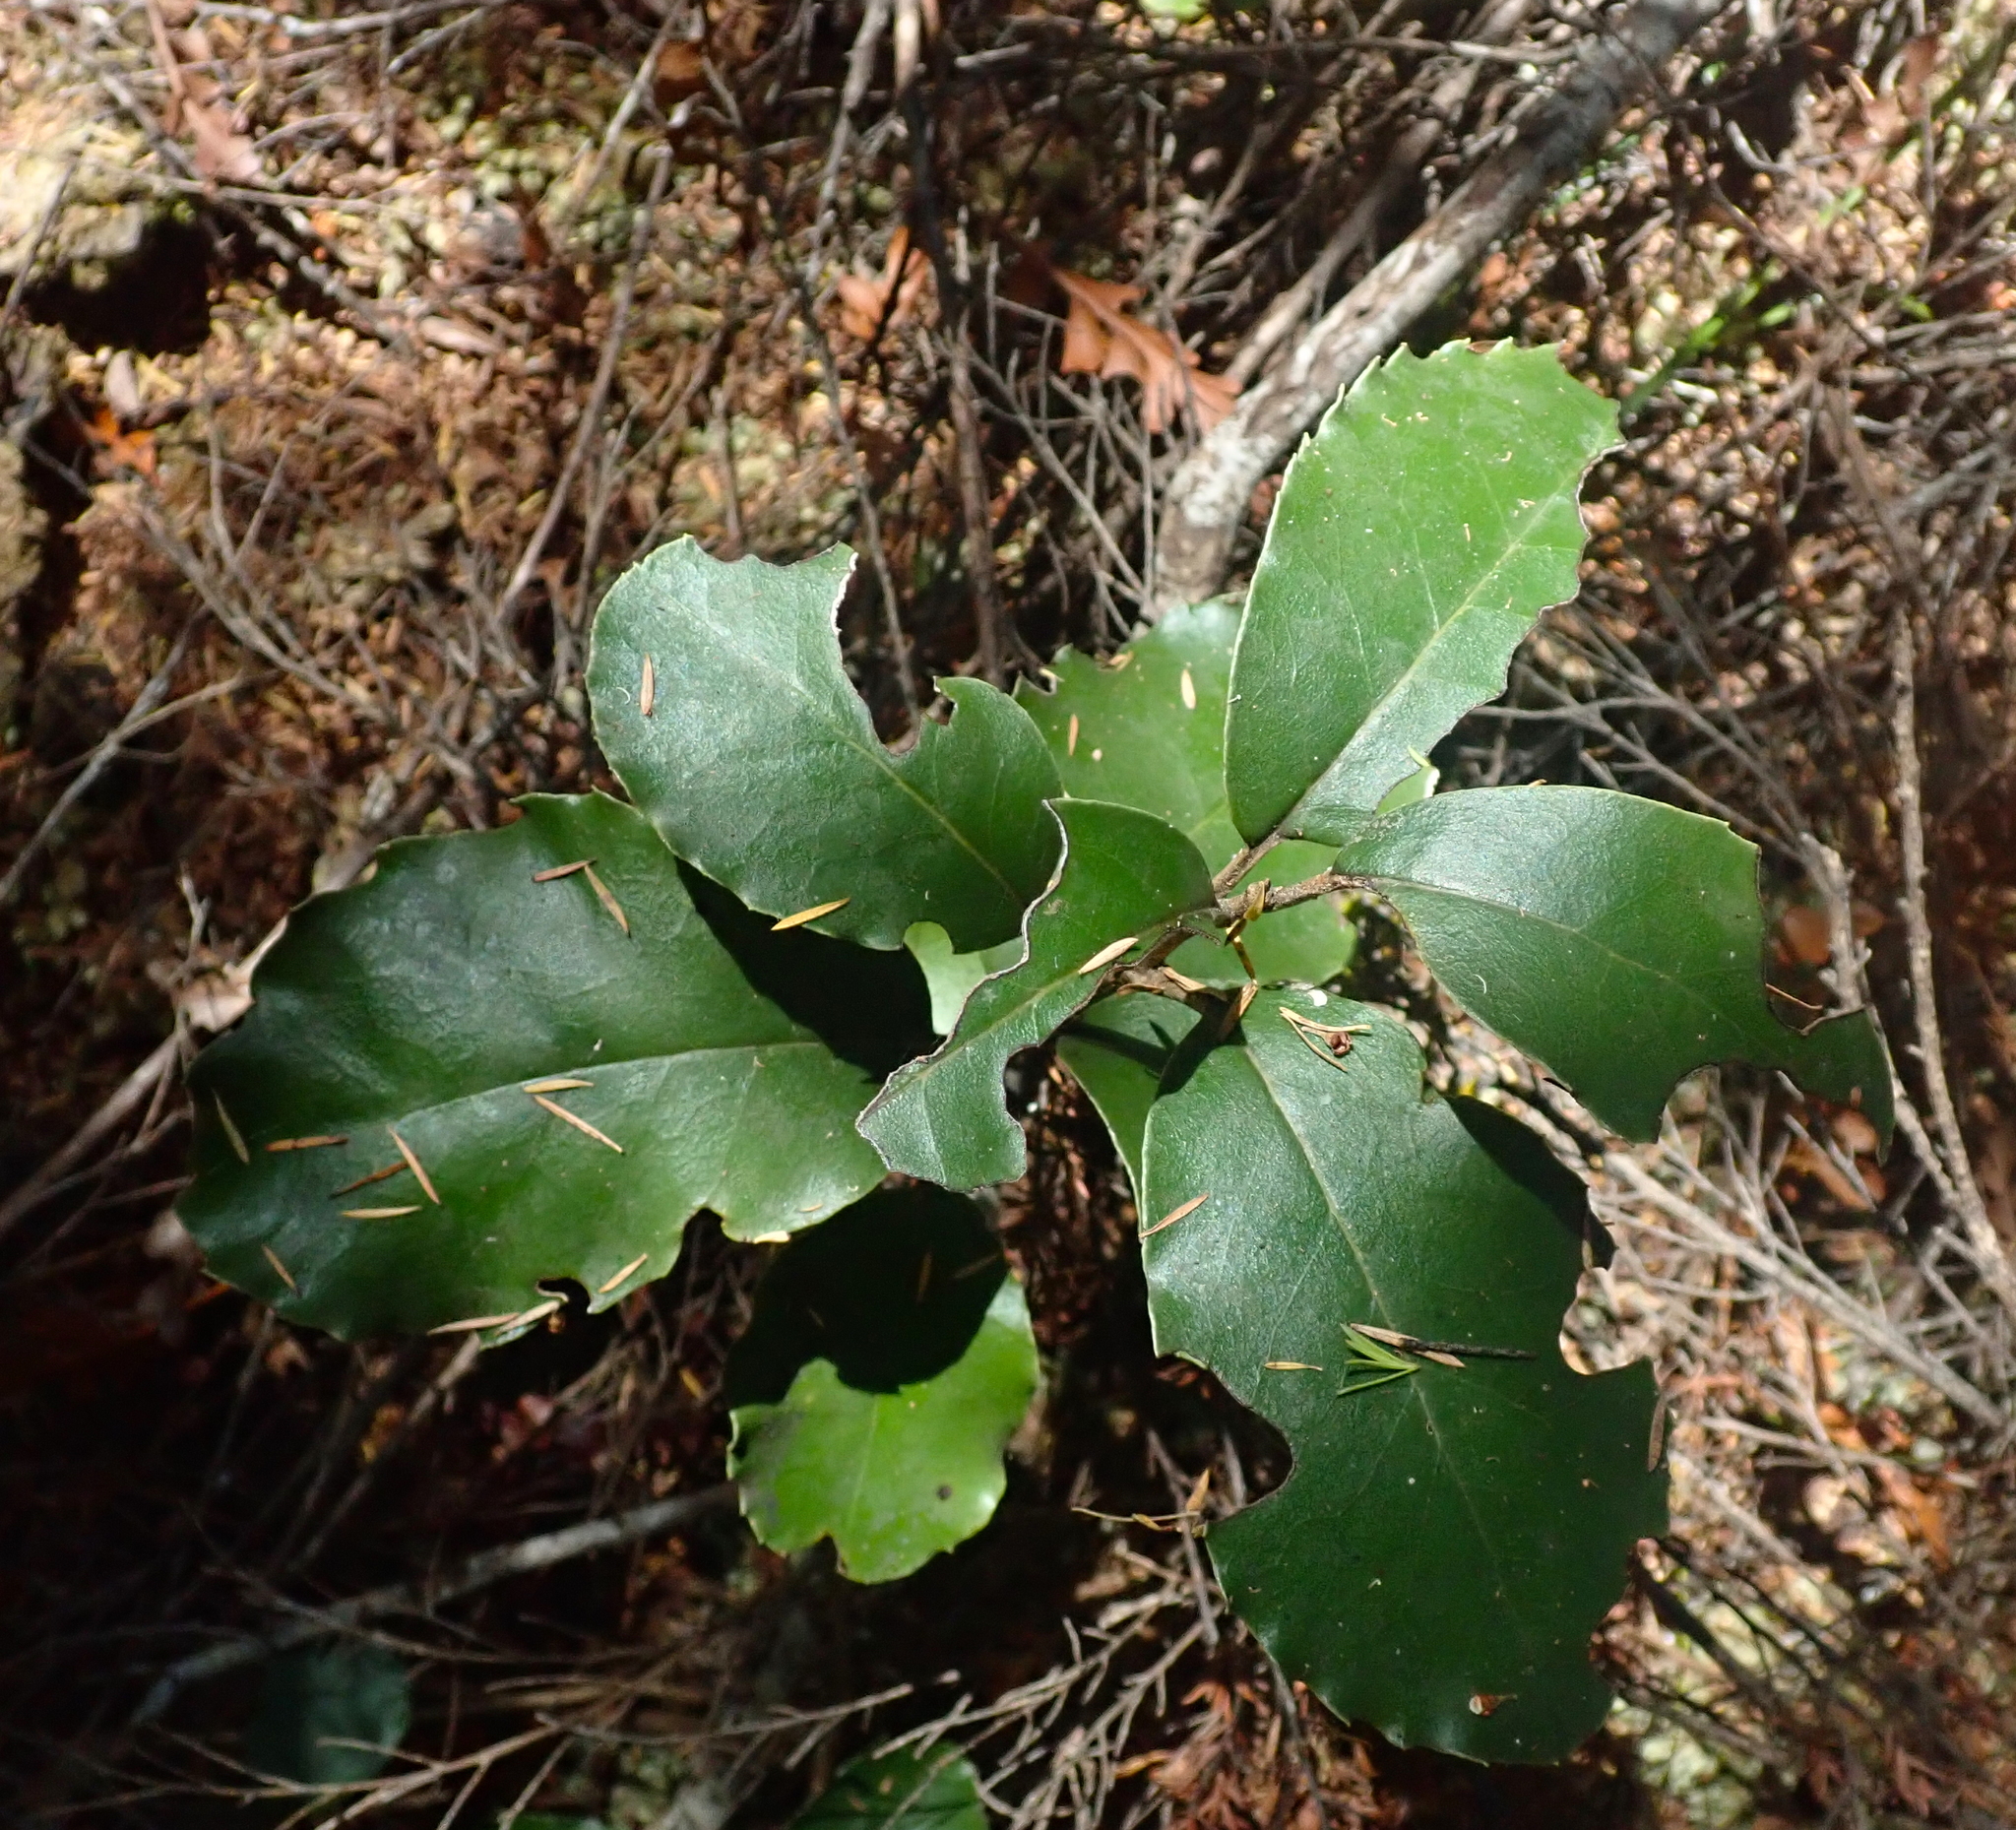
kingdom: Plantae
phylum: Tracheophyta
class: Magnoliopsida
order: Asterales
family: Asteraceae
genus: Olearia
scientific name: Olearia furfuracea
